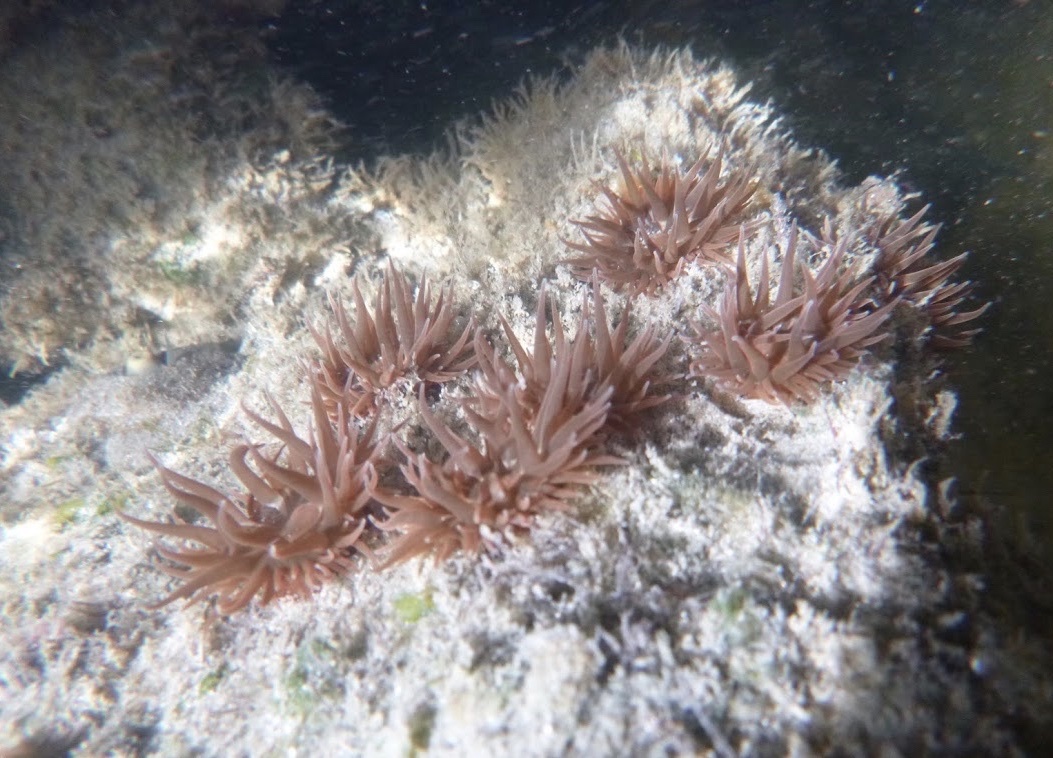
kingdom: Animalia
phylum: Cnidaria
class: Anthozoa
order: Actiniaria
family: Actiniidae
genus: Anemonia
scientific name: Anemonia sargassensis
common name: Sargassum anemone
